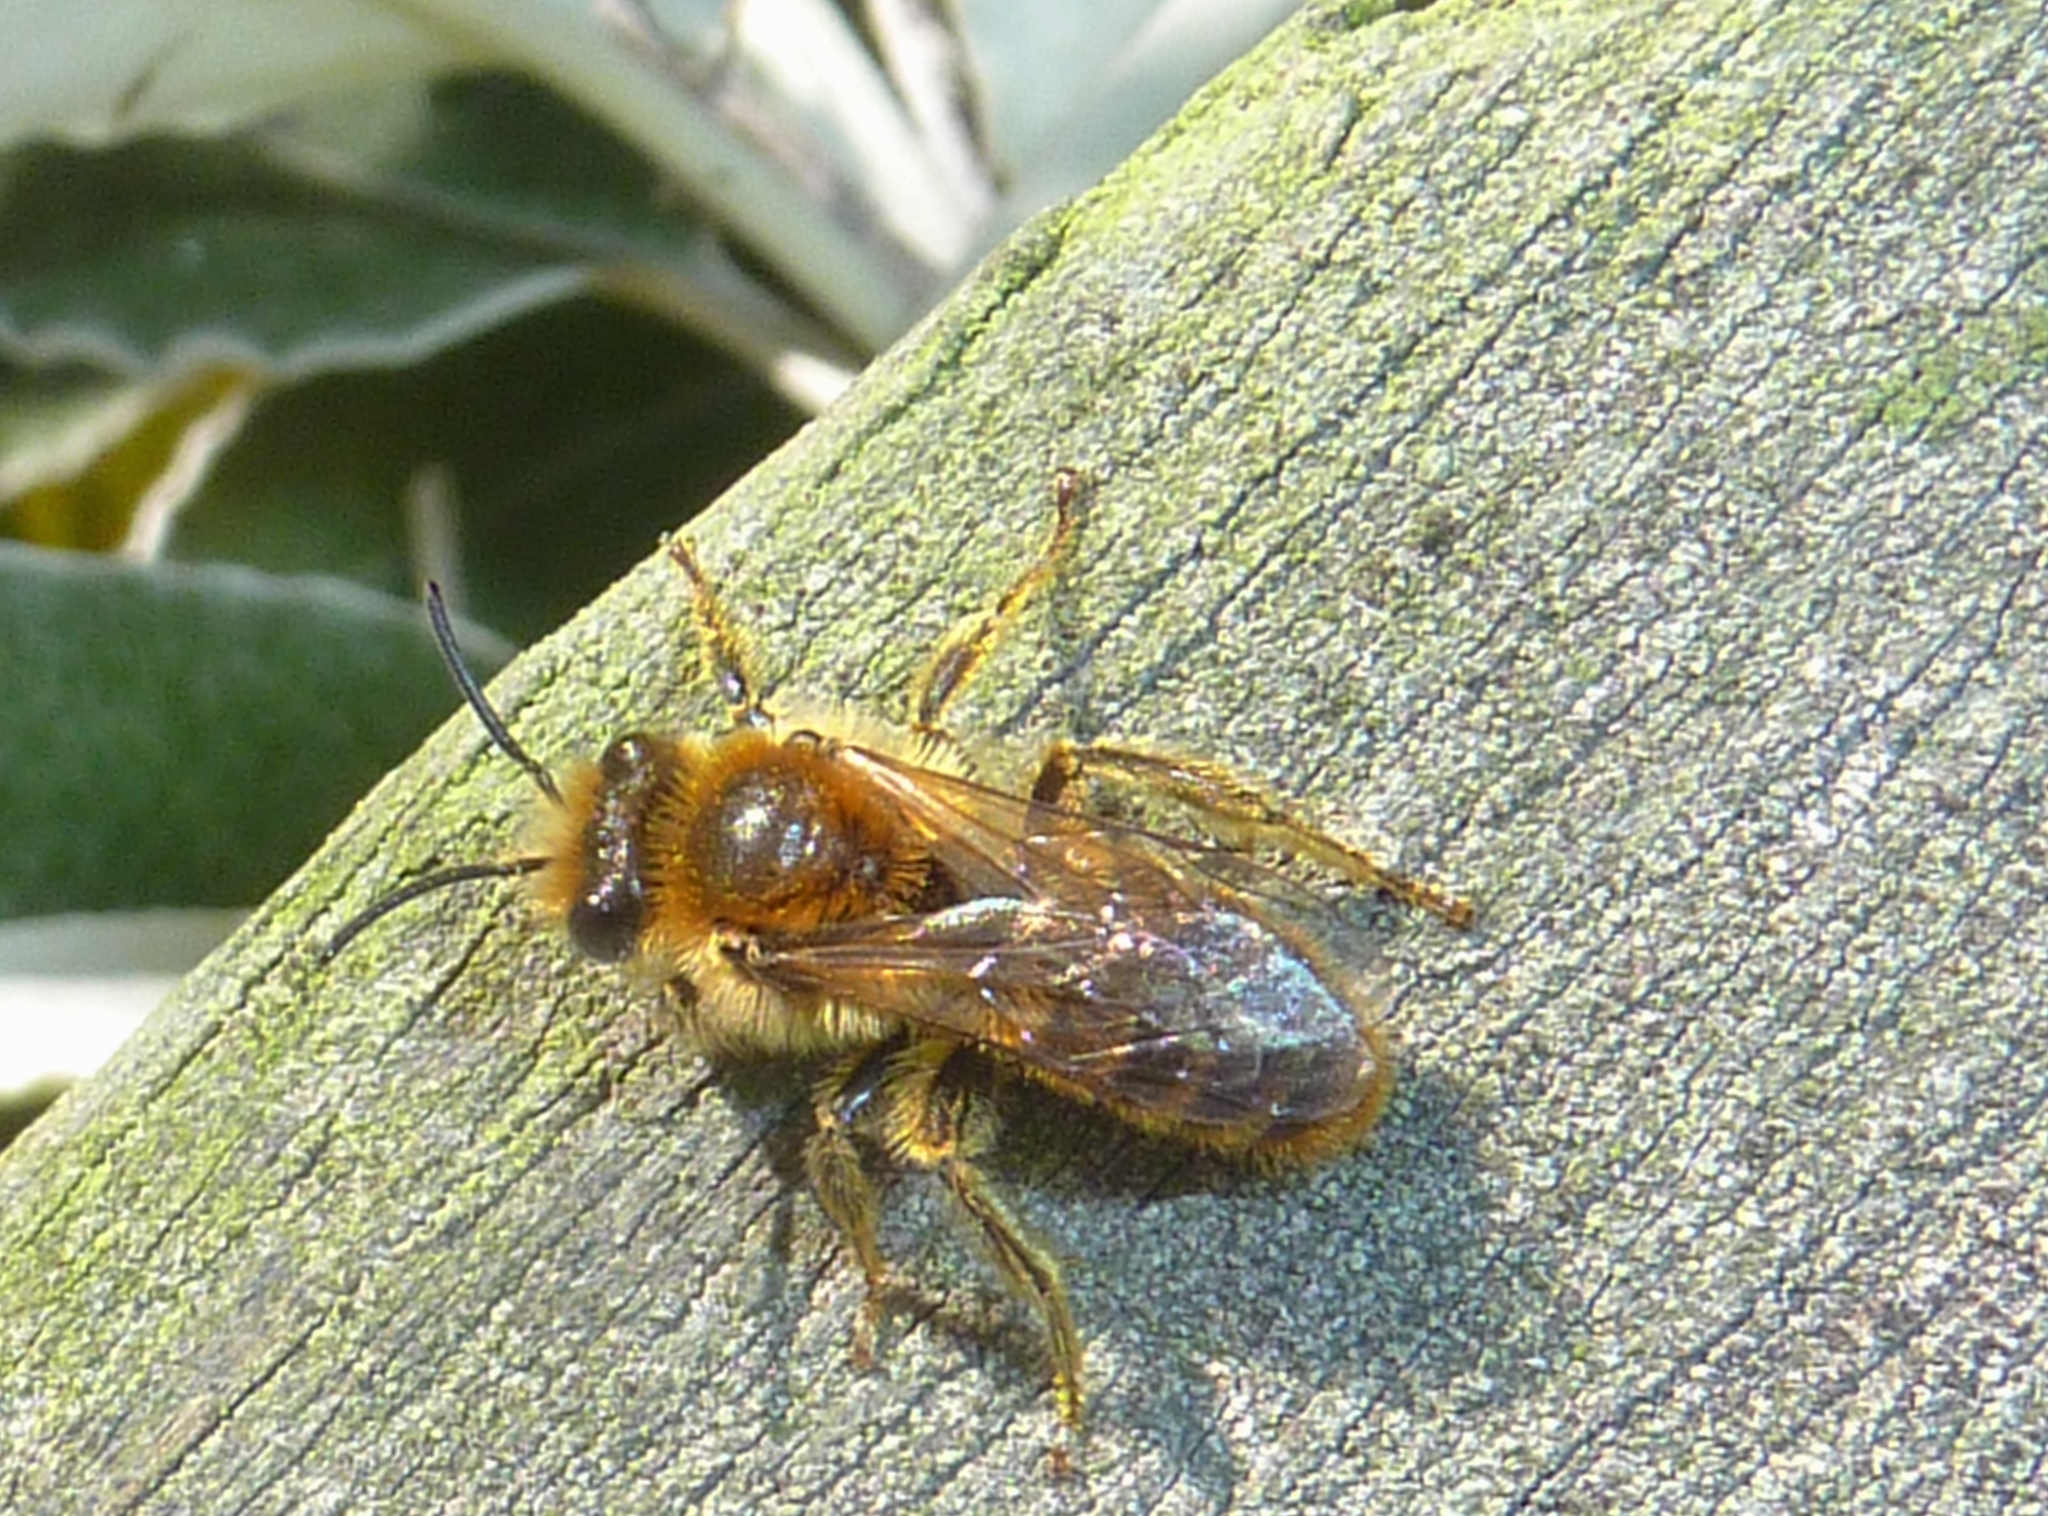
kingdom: Animalia
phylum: Arthropoda
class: Insecta
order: Hymenoptera
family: Colletidae
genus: Leioproctus
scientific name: Leioproctus fulvescens
